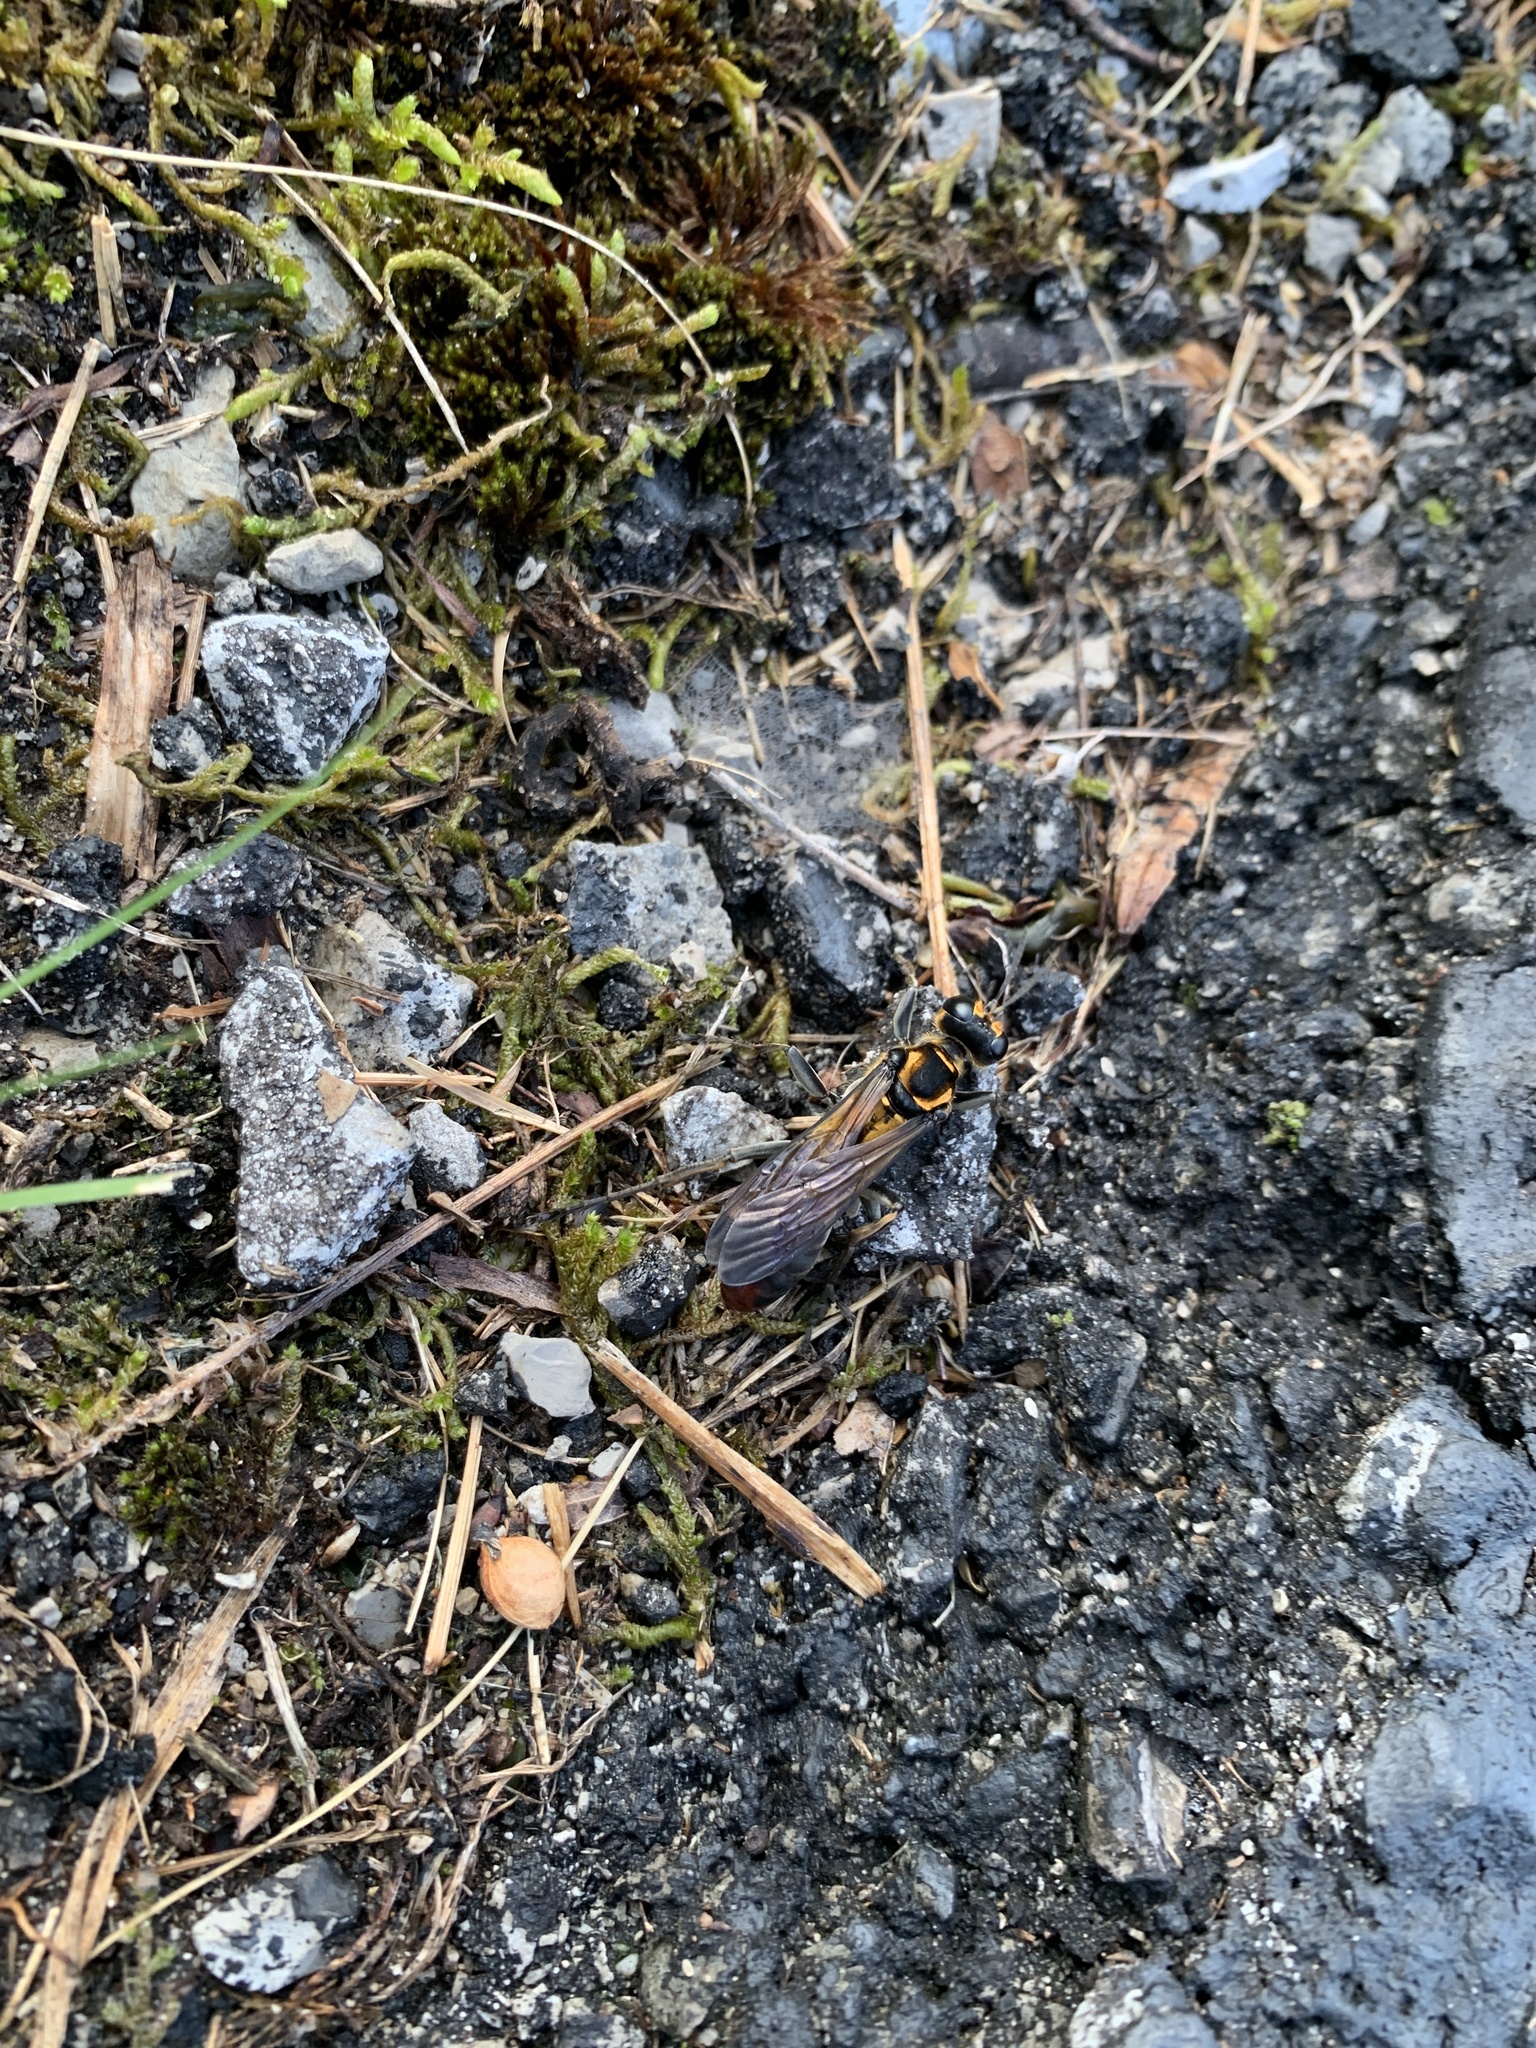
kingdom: Animalia
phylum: Arthropoda
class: Insecta
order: Hymenoptera
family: Sphecidae
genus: Sphex
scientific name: Sphex habenus
